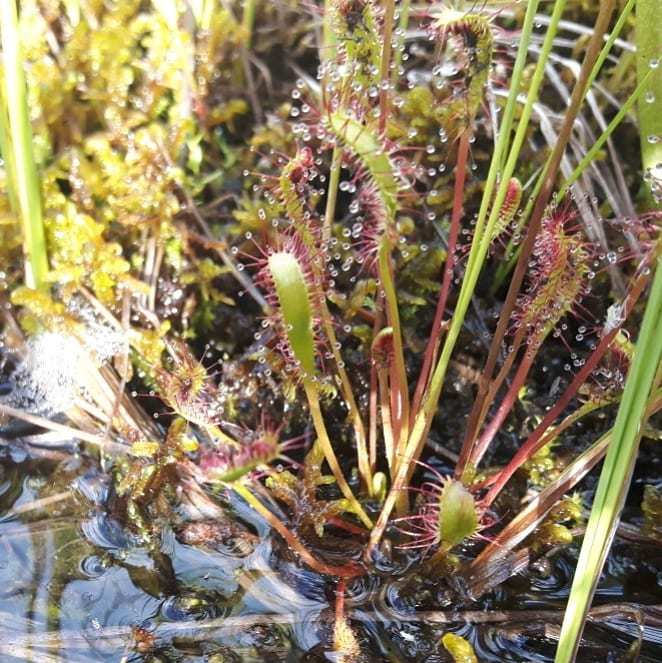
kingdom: Plantae
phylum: Tracheophyta
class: Magnoliopsida
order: Caryophyllales
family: Droseraceae
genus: Drosera
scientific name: Drosera anglica
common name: Great sundew
